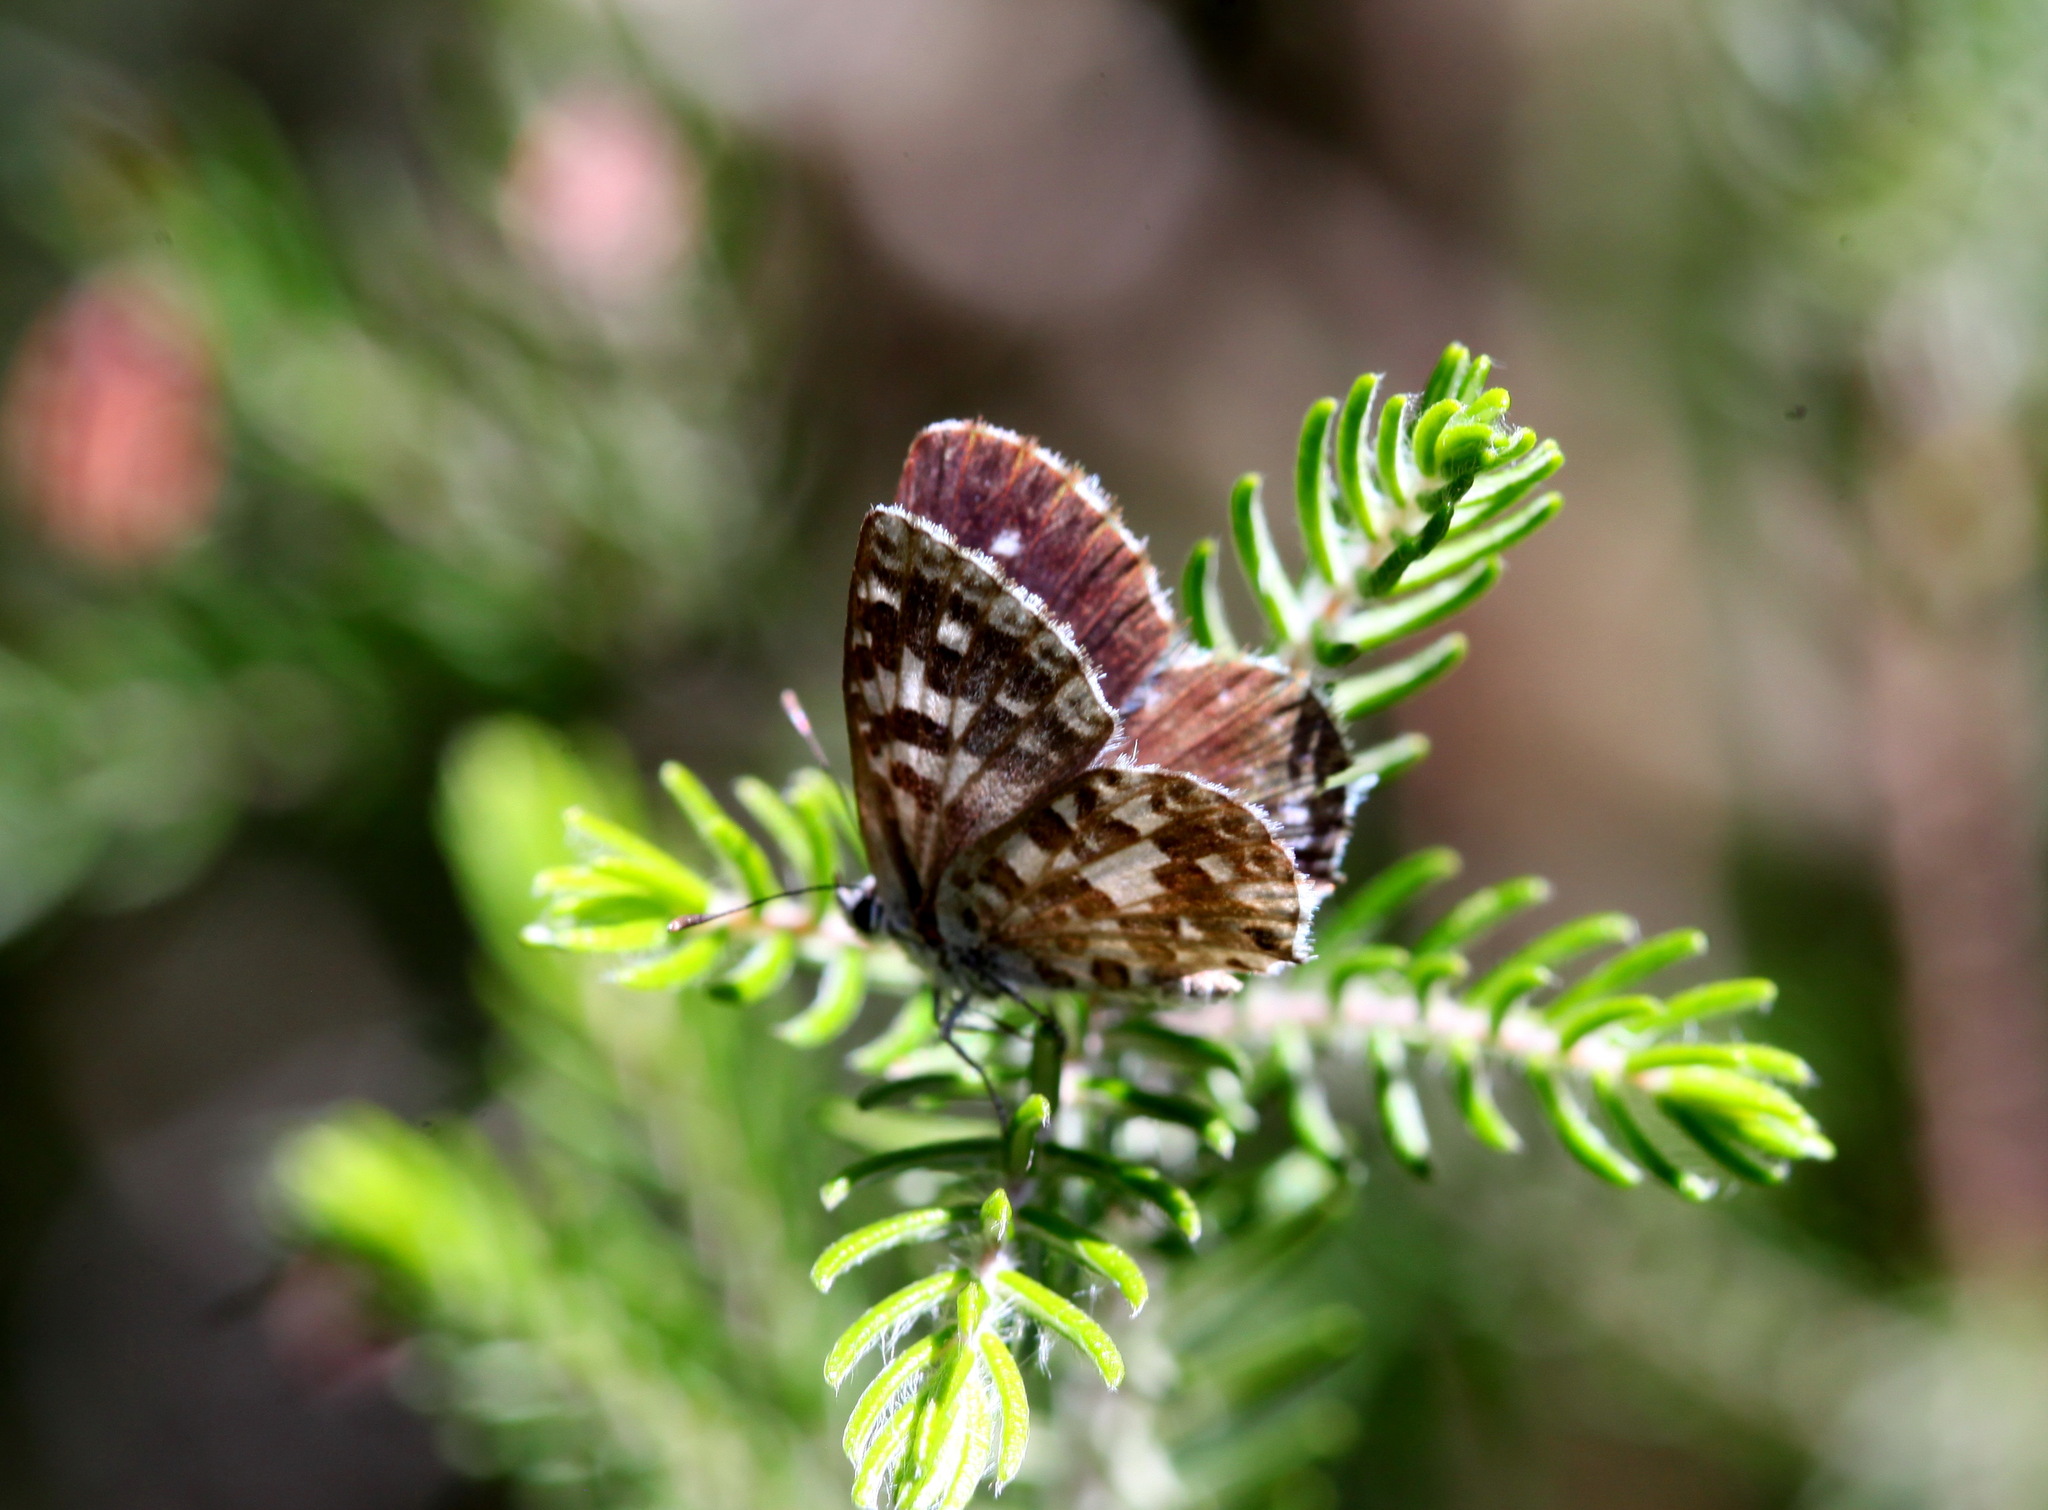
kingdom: Animalia
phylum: Arthropoda
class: Insecta
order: Lepidoptera
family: Lycaenidae
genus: Tarucus
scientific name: Tarucus thespis
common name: Vivid dotted blue
